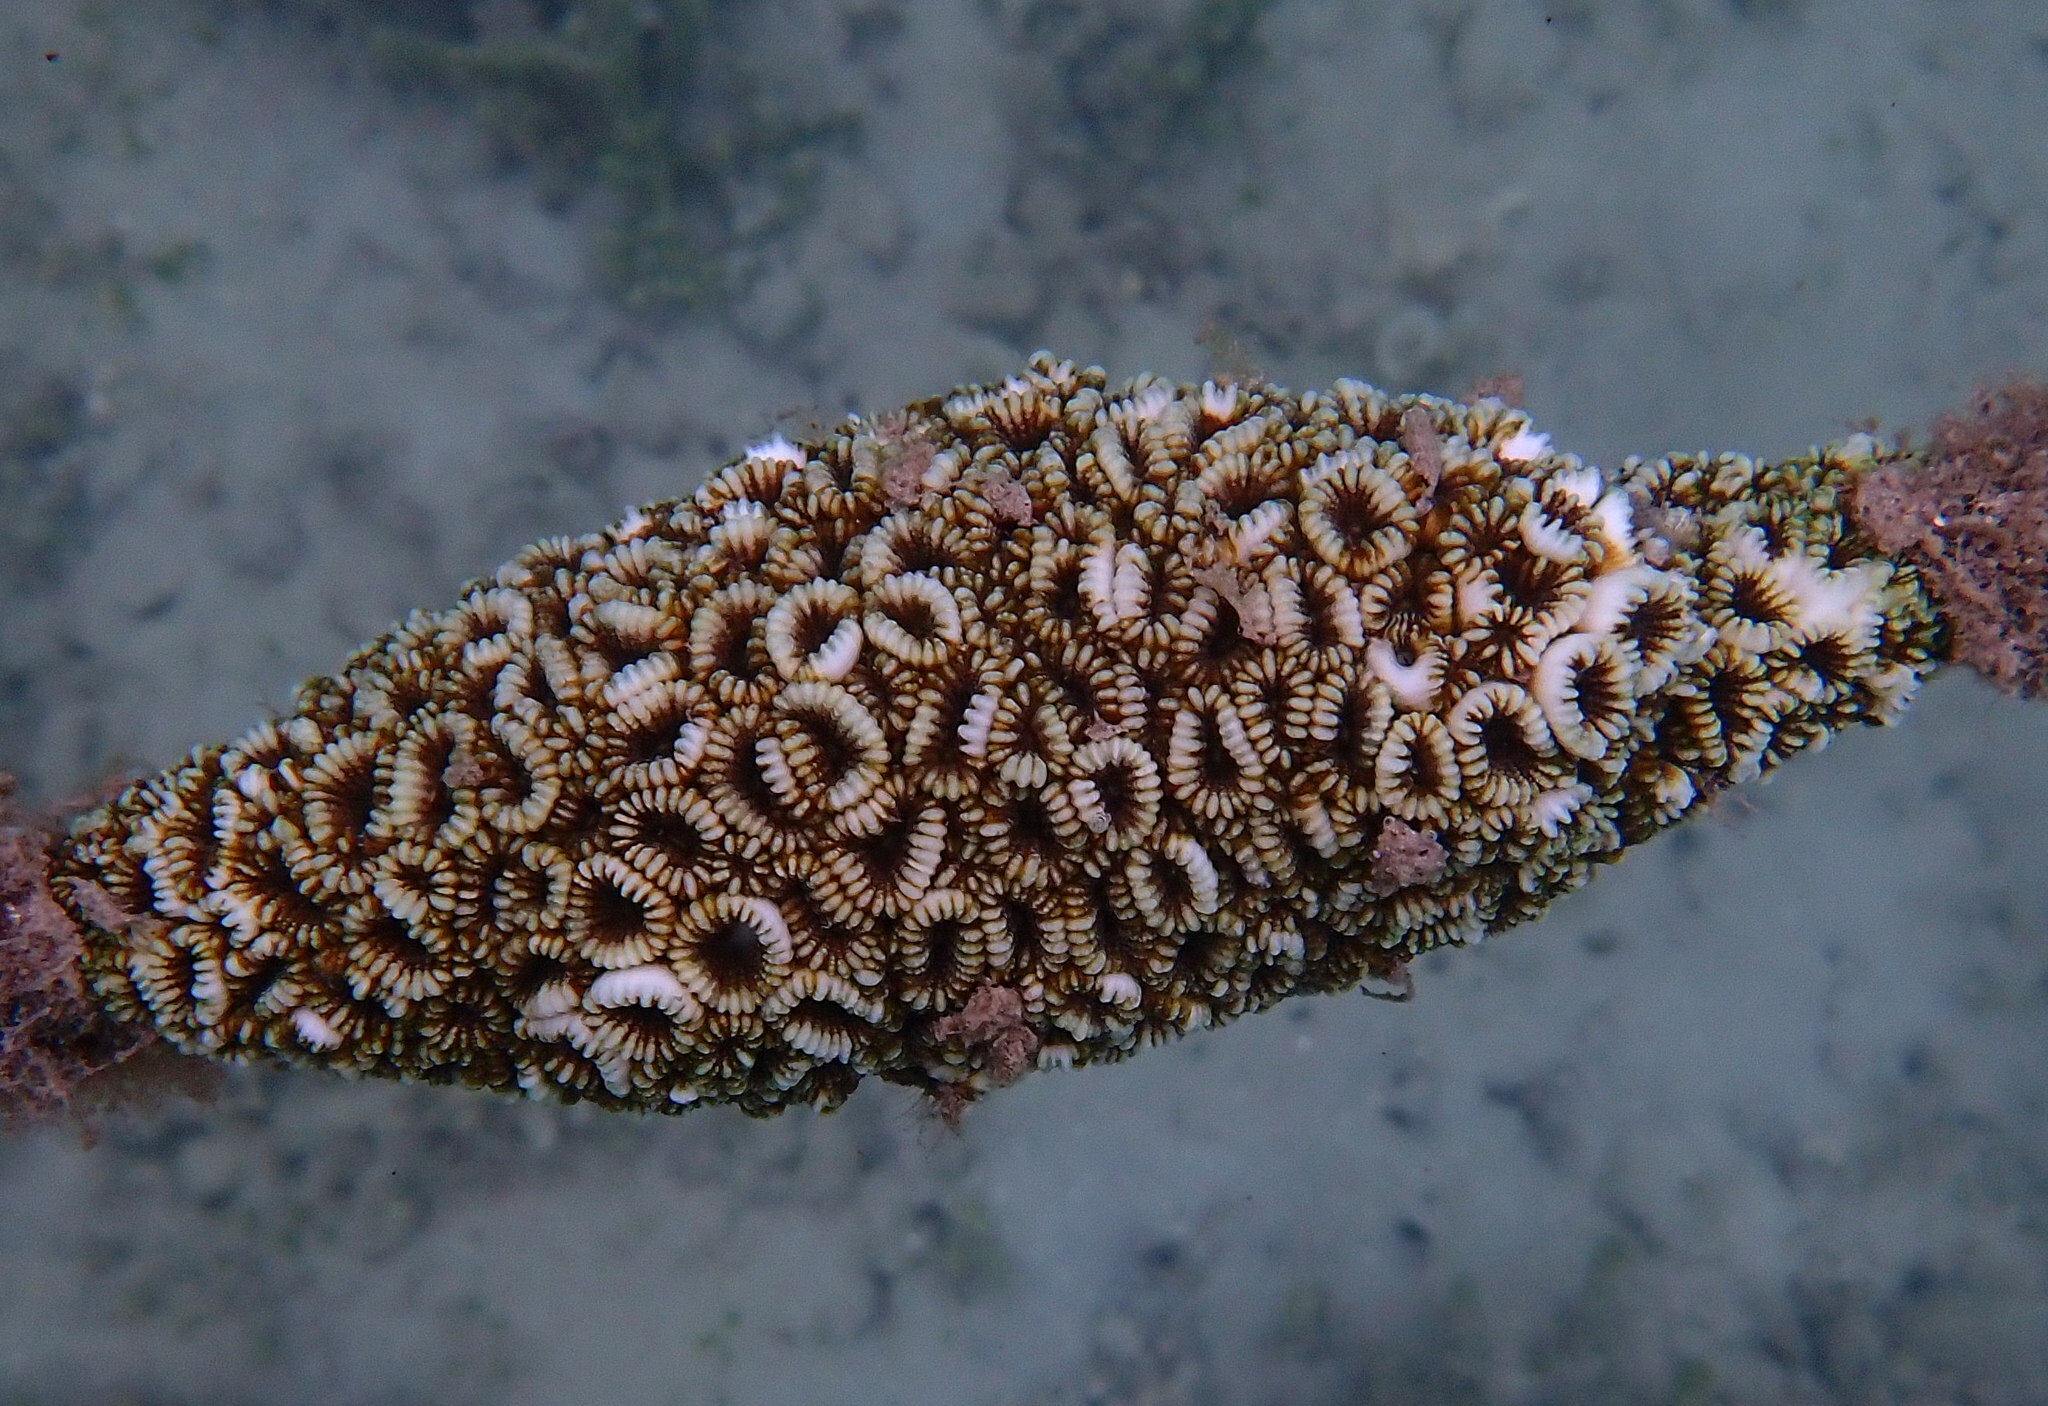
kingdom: Animalia
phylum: Cnidaria
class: Anthozoa
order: Scleractinia
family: Merulinidae
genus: Favites
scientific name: Favites valenciennesii
